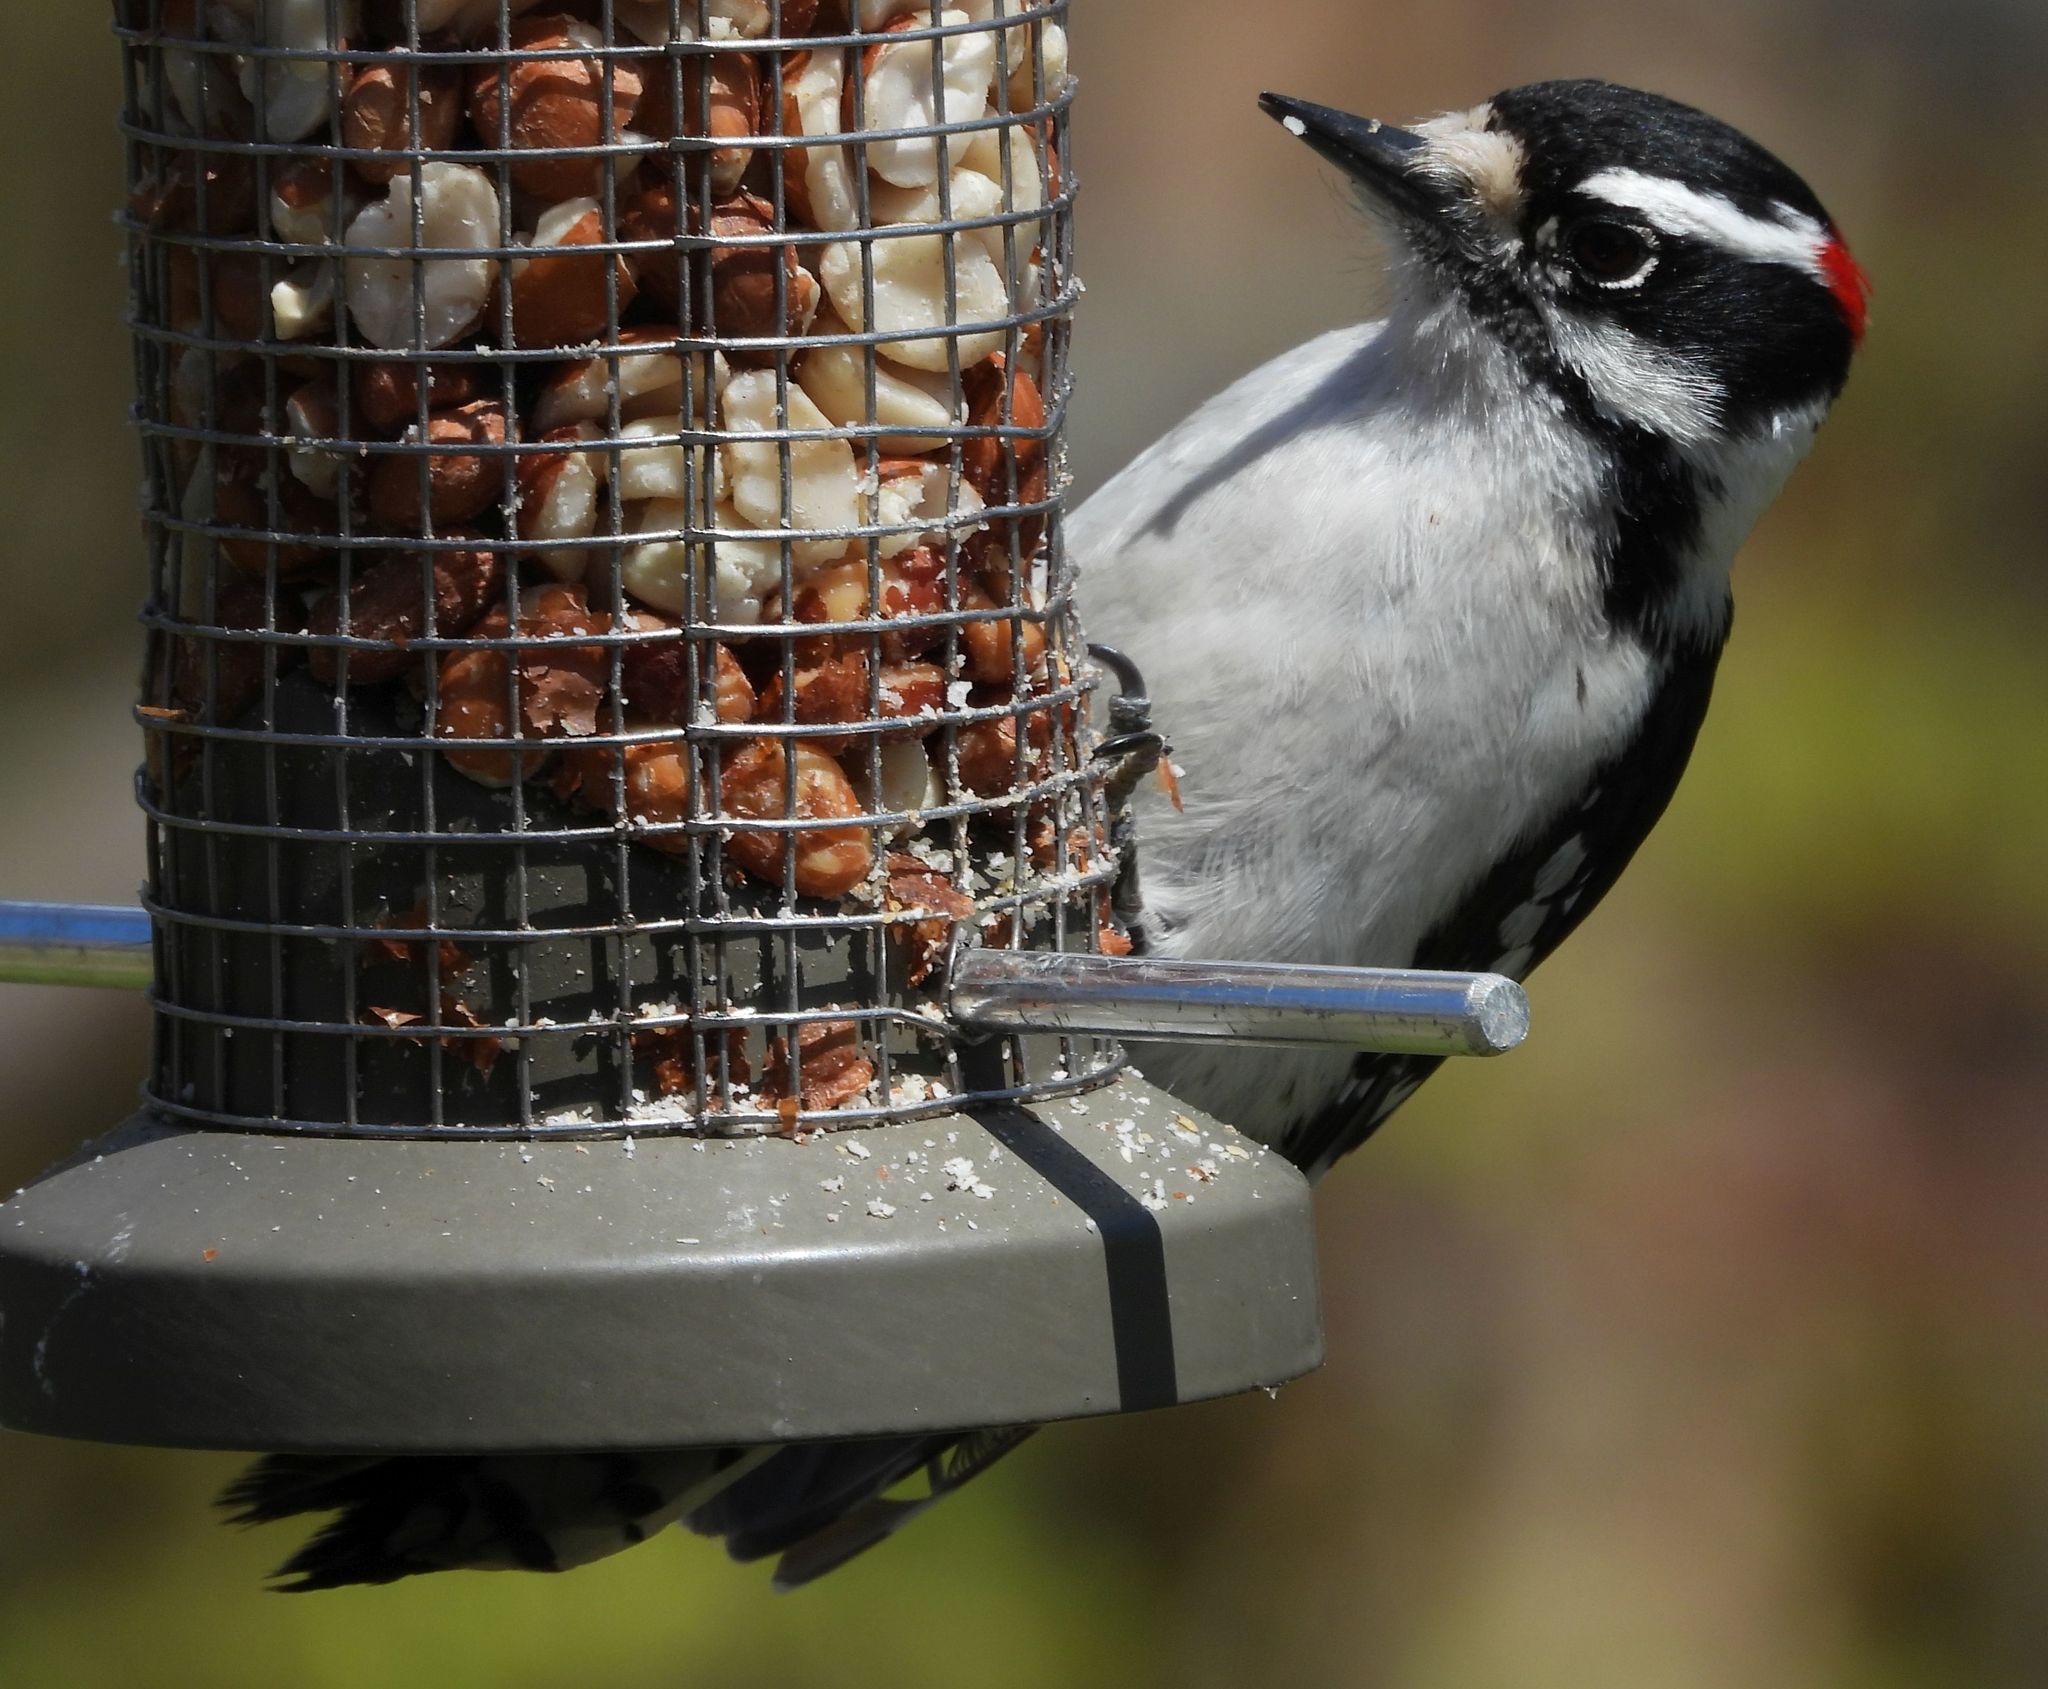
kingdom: Animalia
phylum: Chordata
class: Aves
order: Piciformes
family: Picidae
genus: Dryobates
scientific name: Dryobates pubescens
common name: Downy woodpecker
